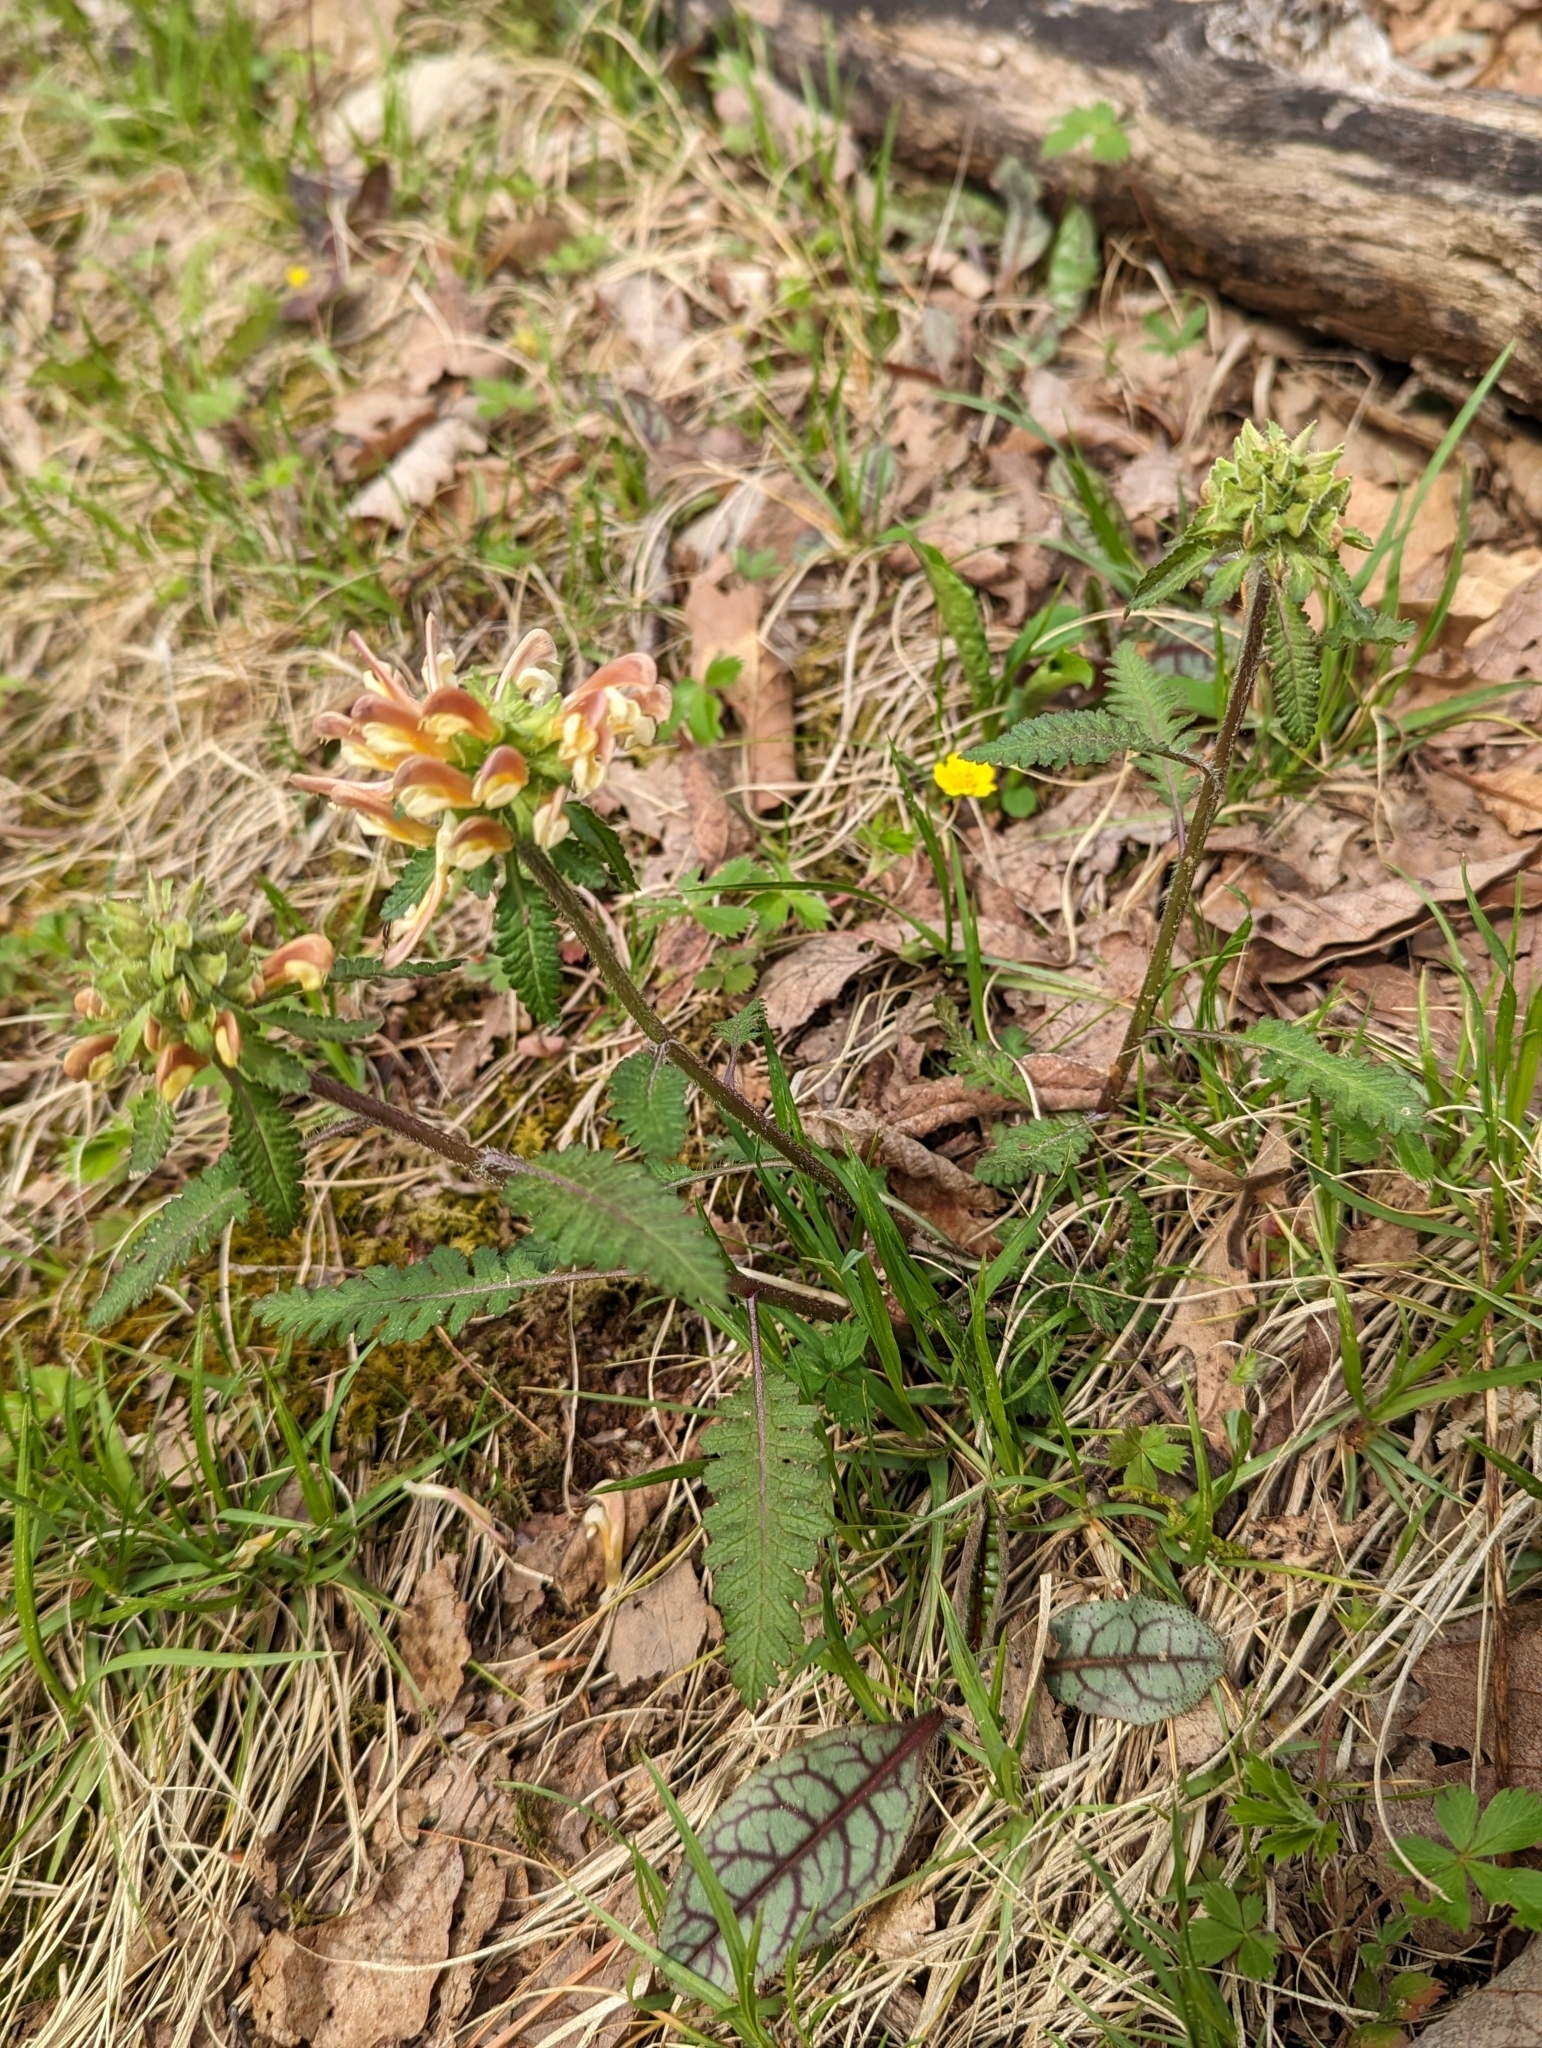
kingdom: Plantae
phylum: Tracheophyta
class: Magnoliopsida
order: Lamiales
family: Orobanchaceae
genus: Pedicularis
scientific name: Pedicularis canadensis
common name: Early lousewort
